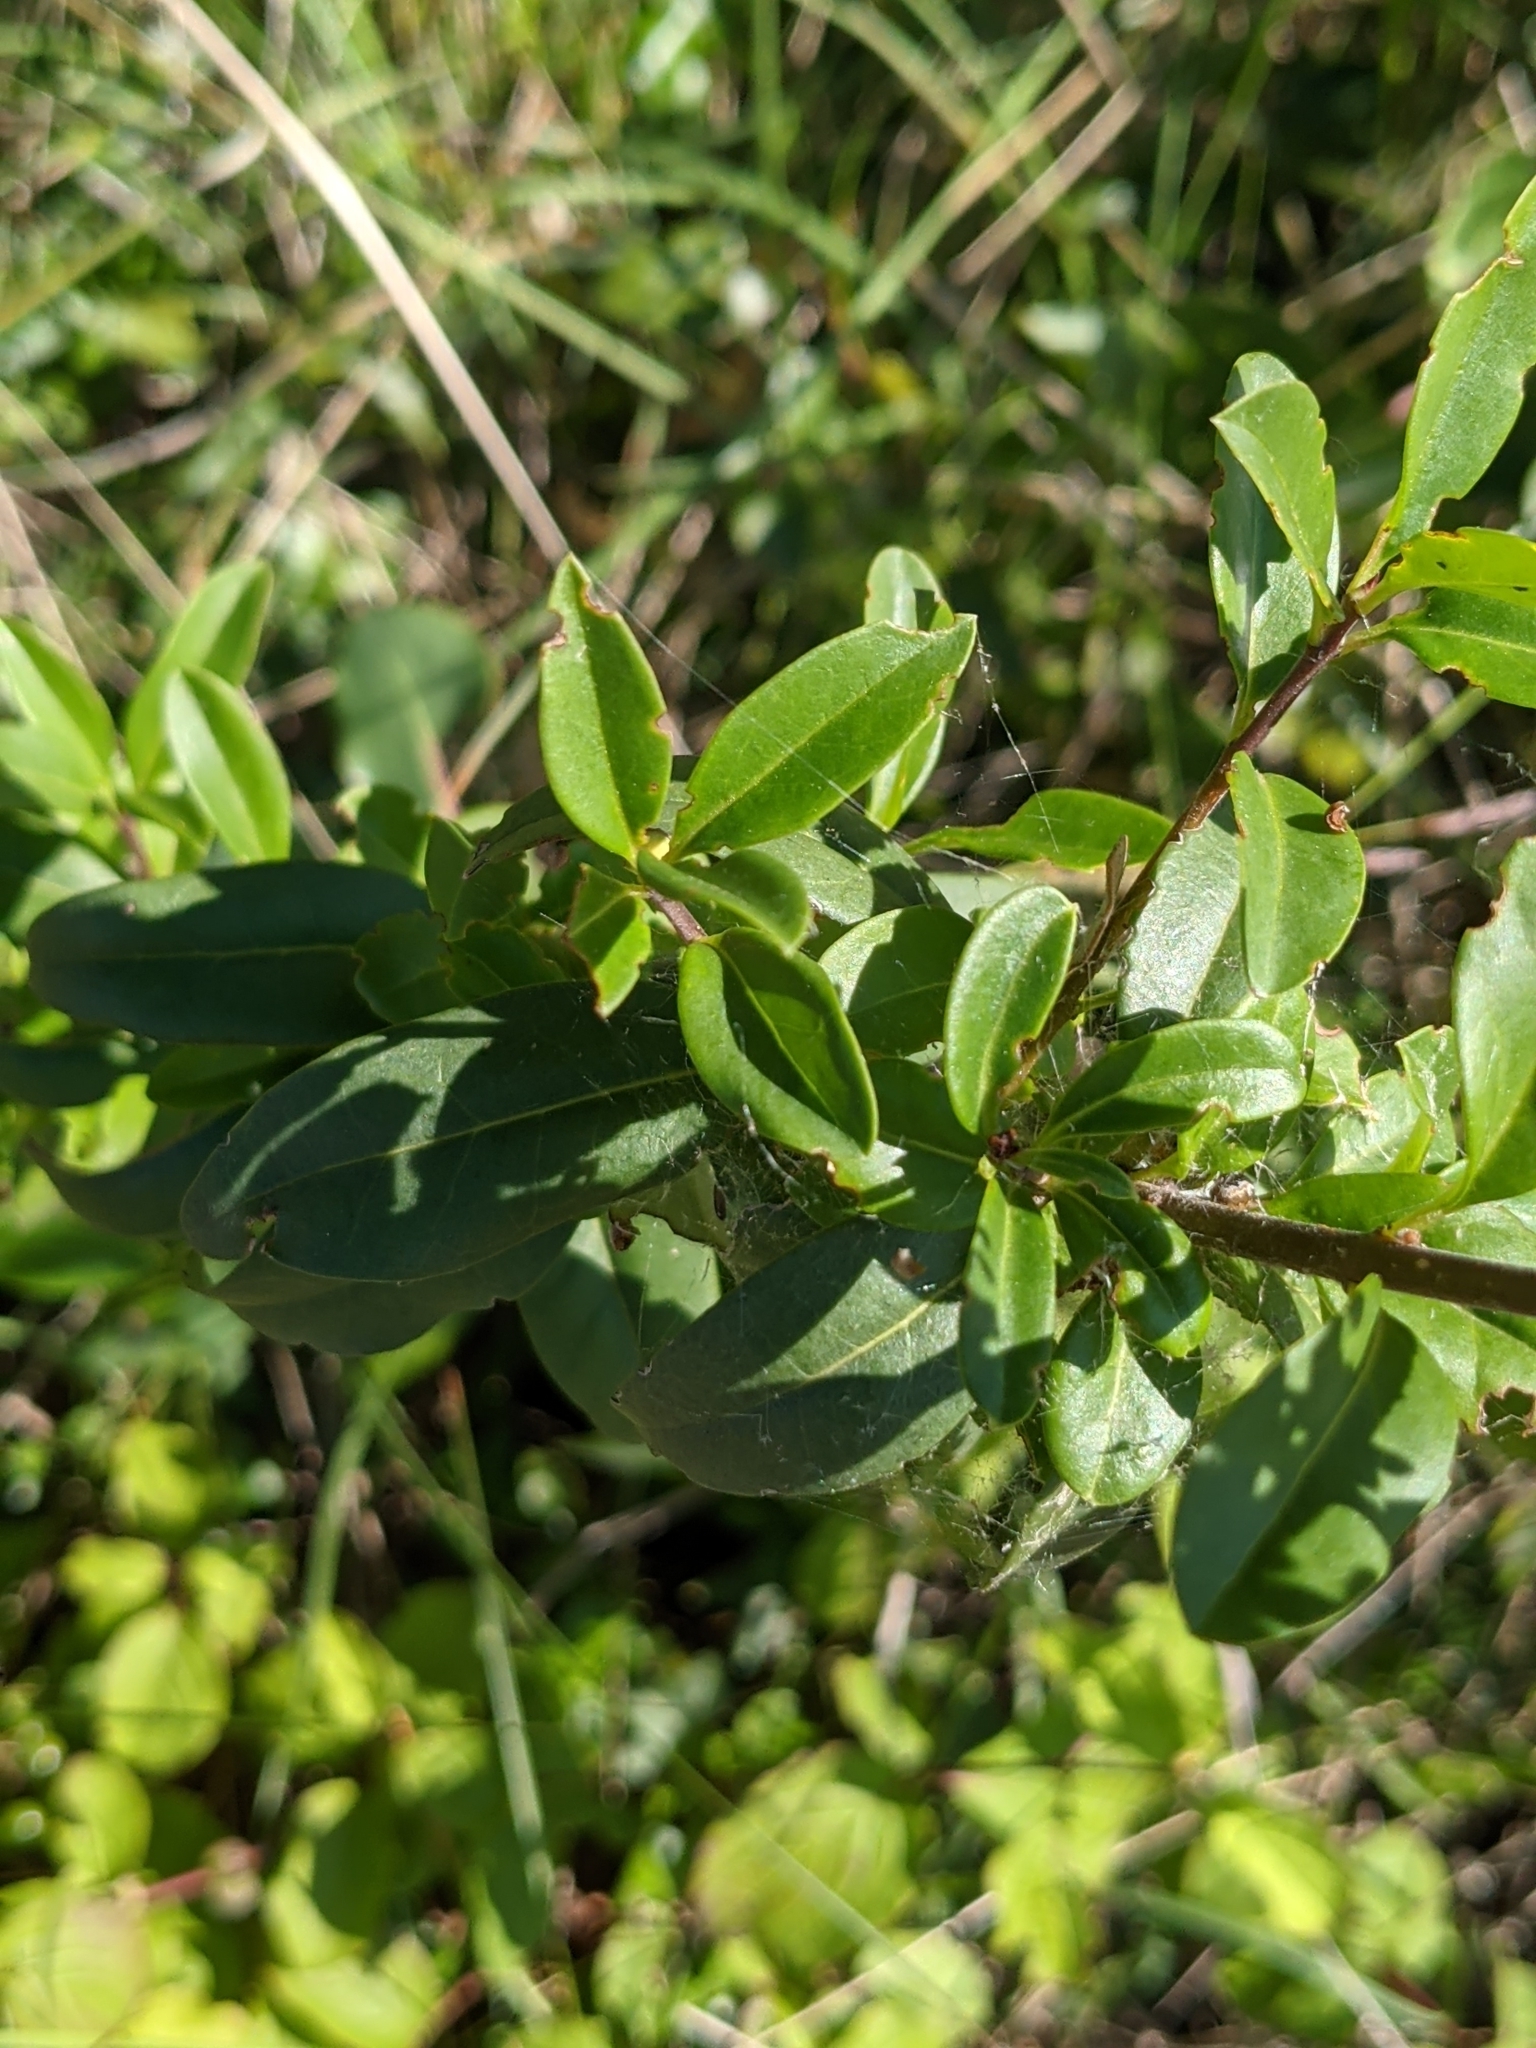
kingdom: Plantae
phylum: Tracheophyta
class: Magnoliopsida
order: Lamiales
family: Oleaceae
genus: Ligustrum
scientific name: Ligustrum vulgare
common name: Wild privet
